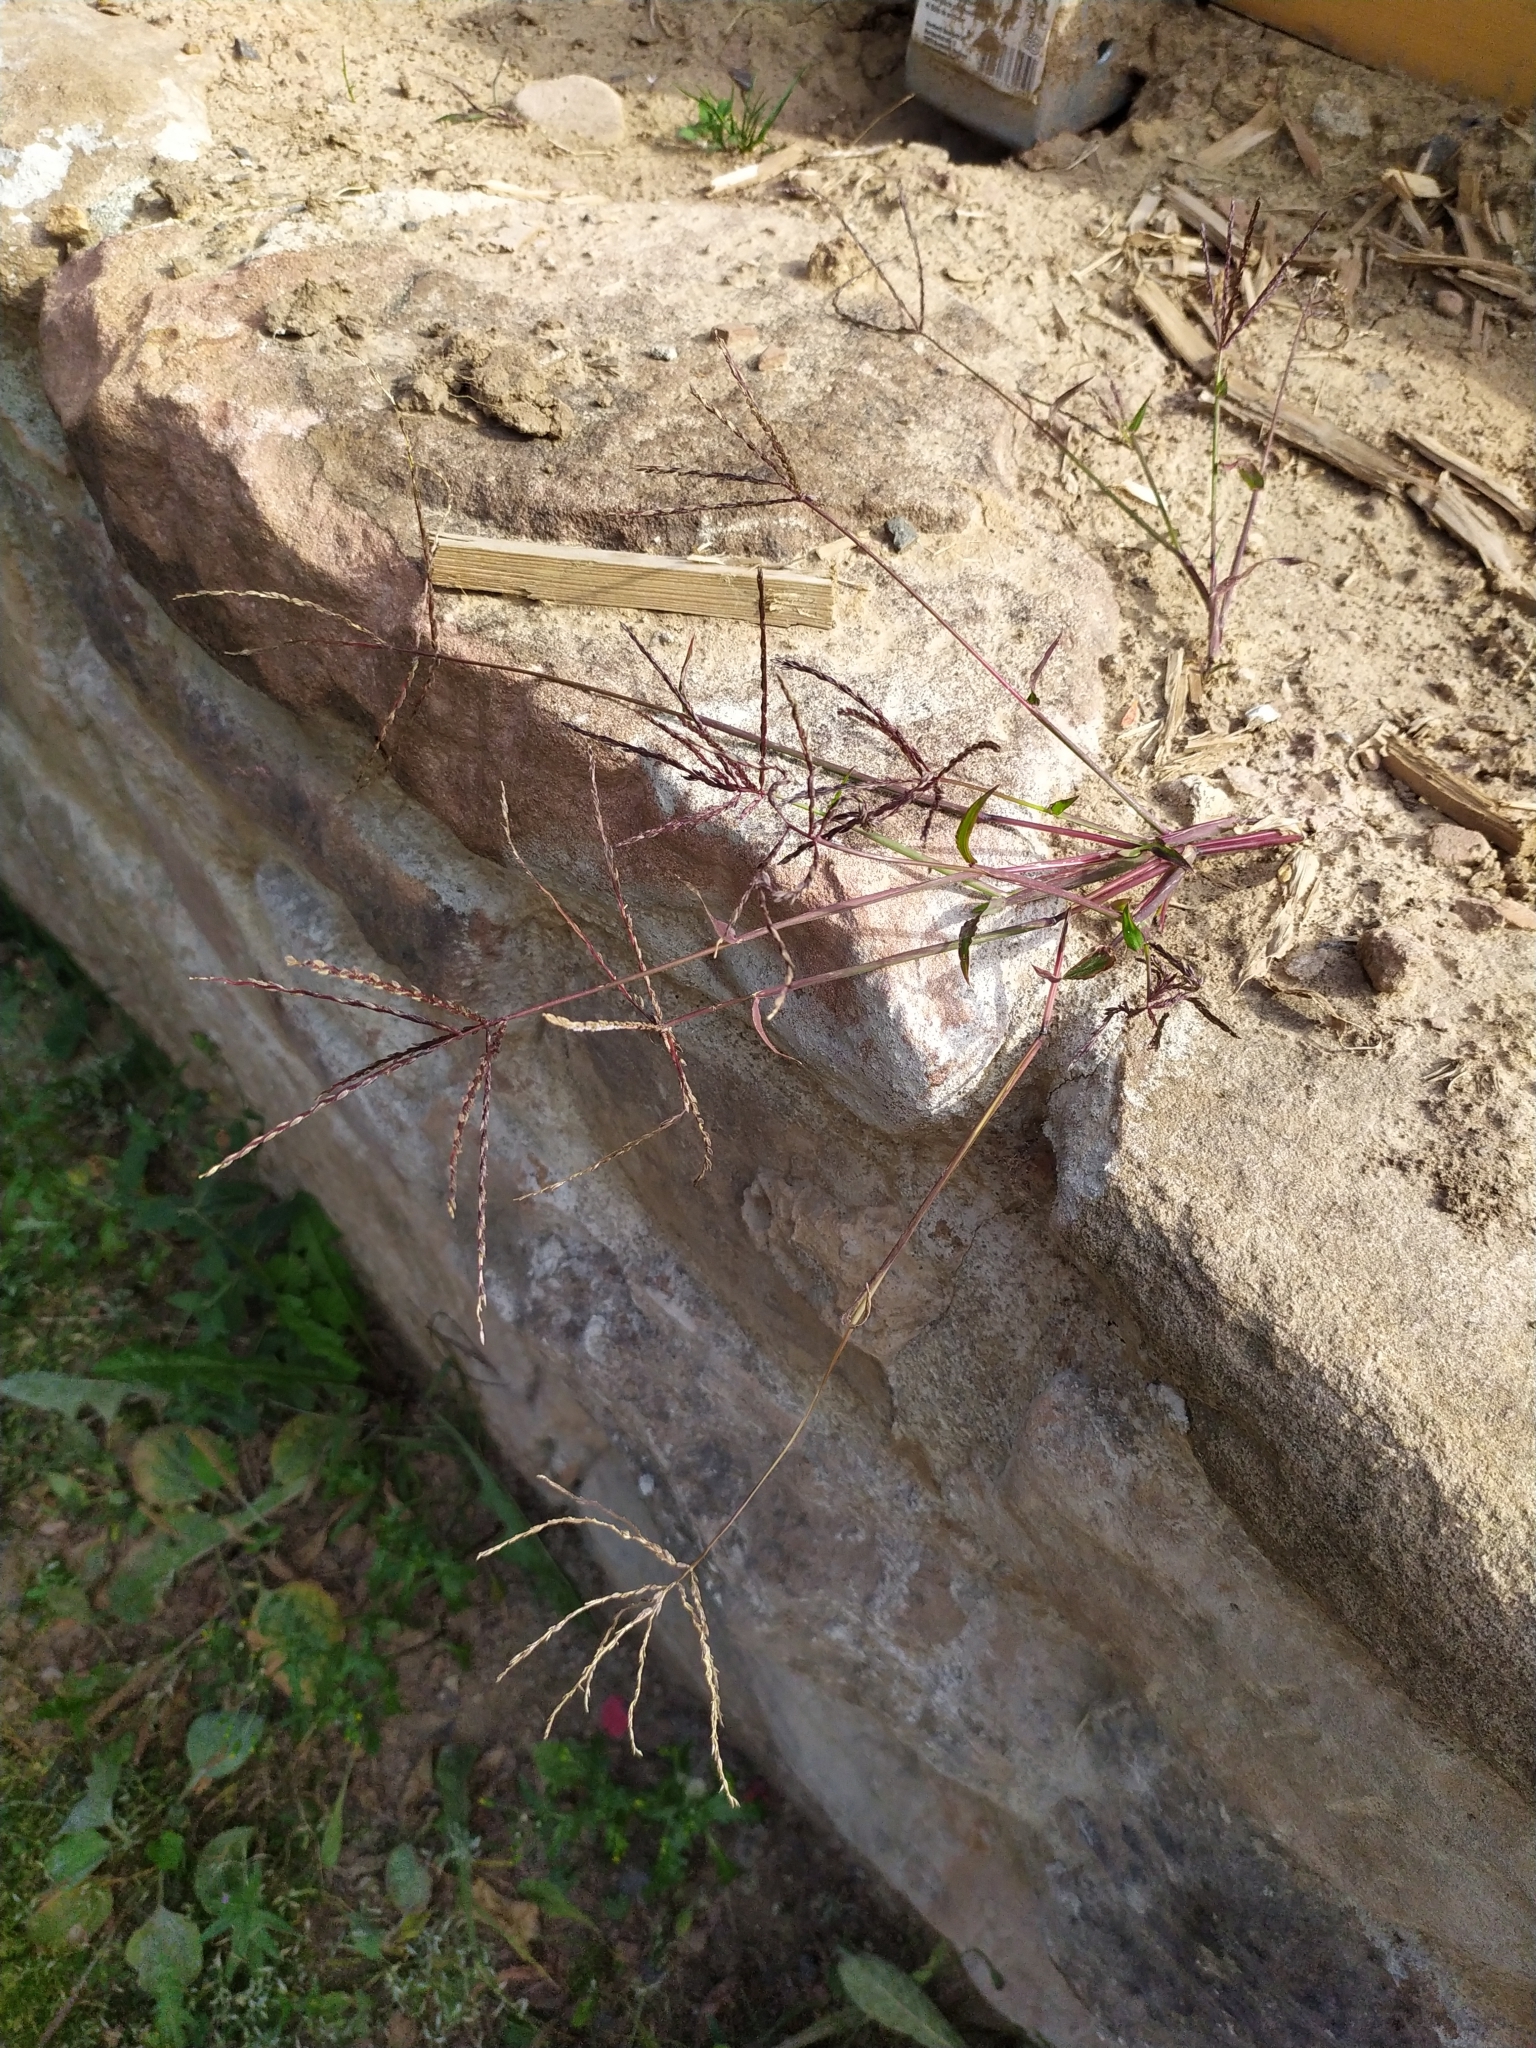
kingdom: Plantae
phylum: Tracheophyta
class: Liliopsida
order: Poales
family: Poaceae
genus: Digitaria
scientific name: Digitaria ischaemum
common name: Smooth crabgrass
